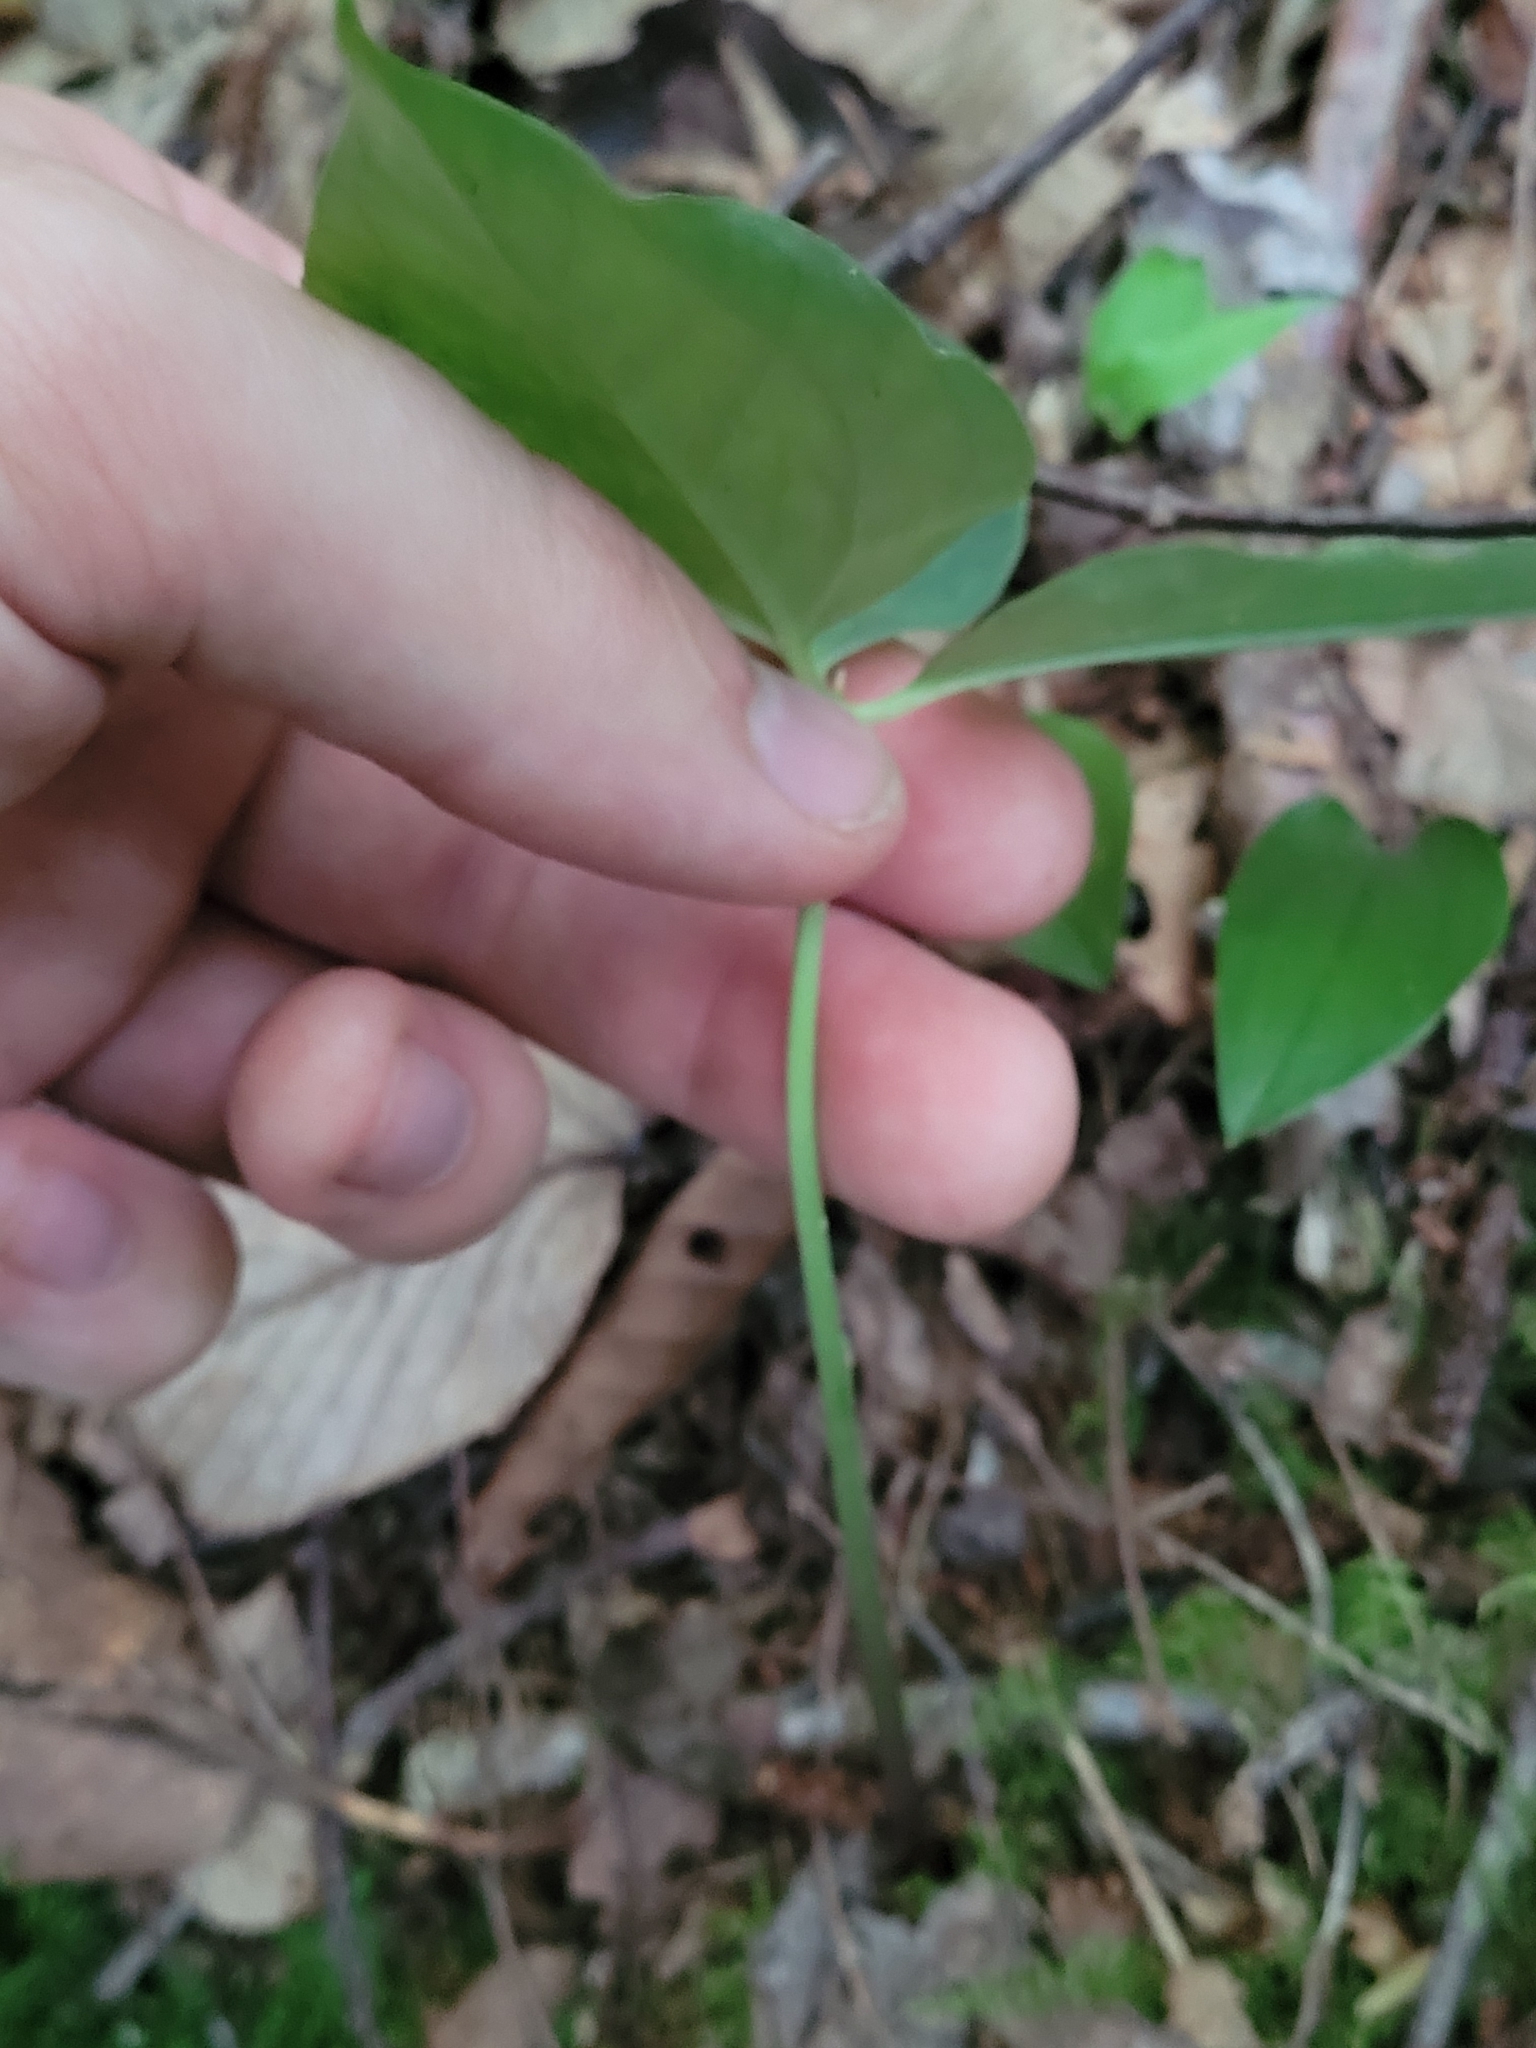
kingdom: Plantae
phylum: Tracheophyta
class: Liliopsida
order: Liliales
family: Melanthiaceae
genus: Trillium
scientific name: Trillium undulatum
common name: Paint trillium
